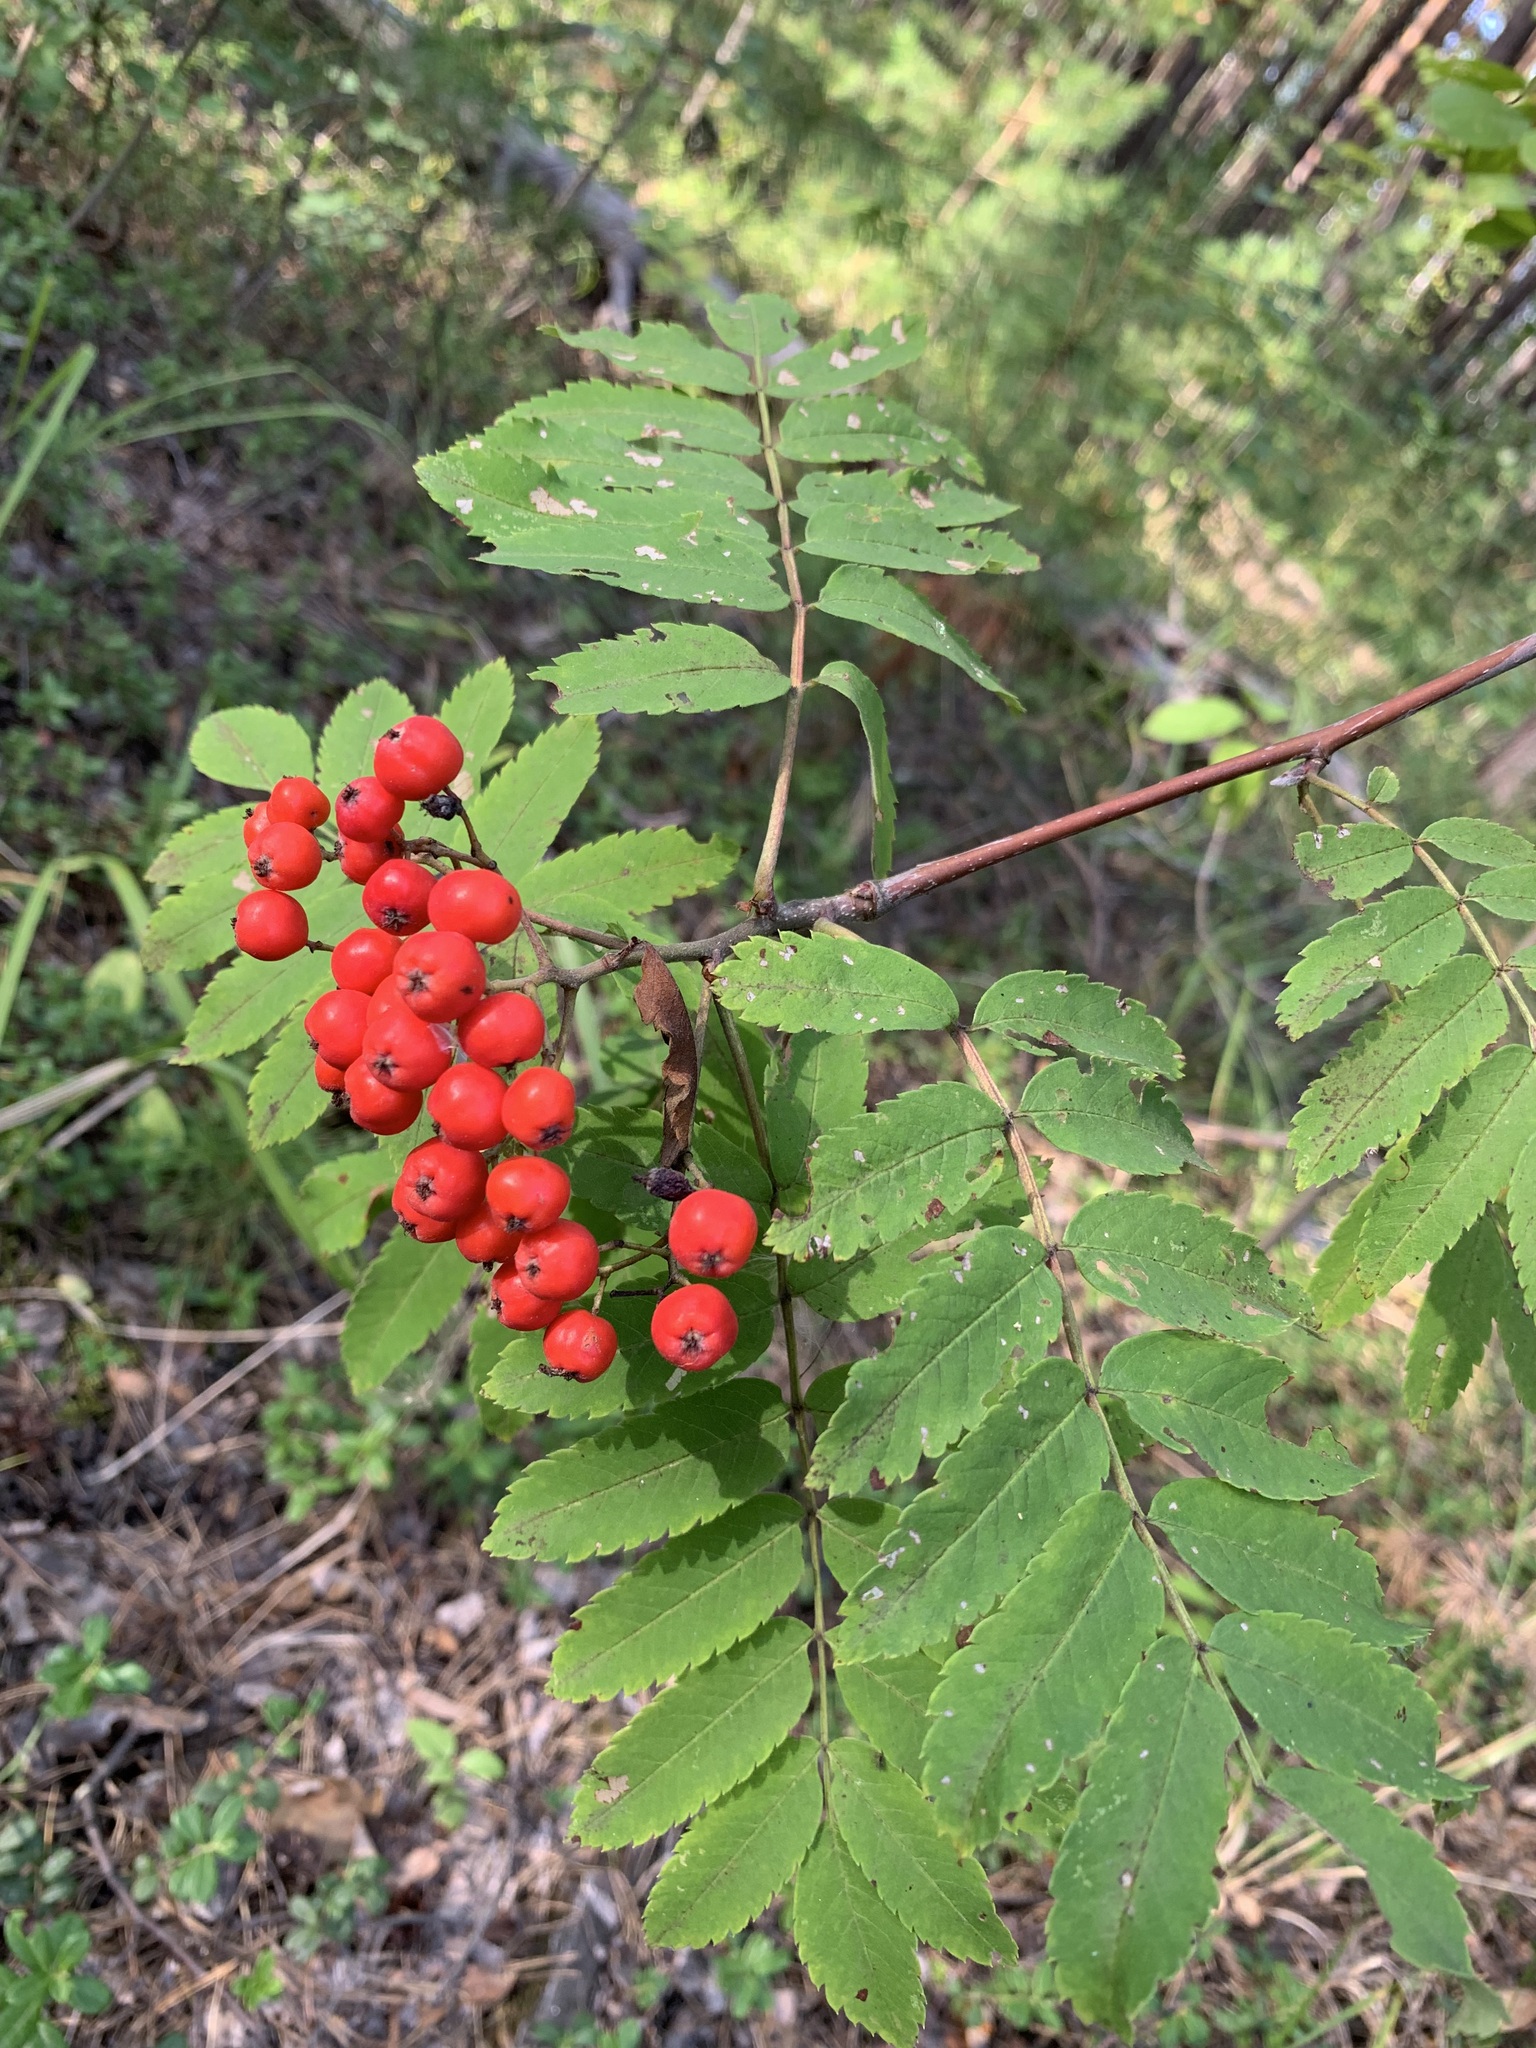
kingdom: Plantae
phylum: Tracheophyta
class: Magnoliopsida
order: Rosales
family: Rosaceae
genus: Sorbus
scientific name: Sorbus aucuparia
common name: Rowan
